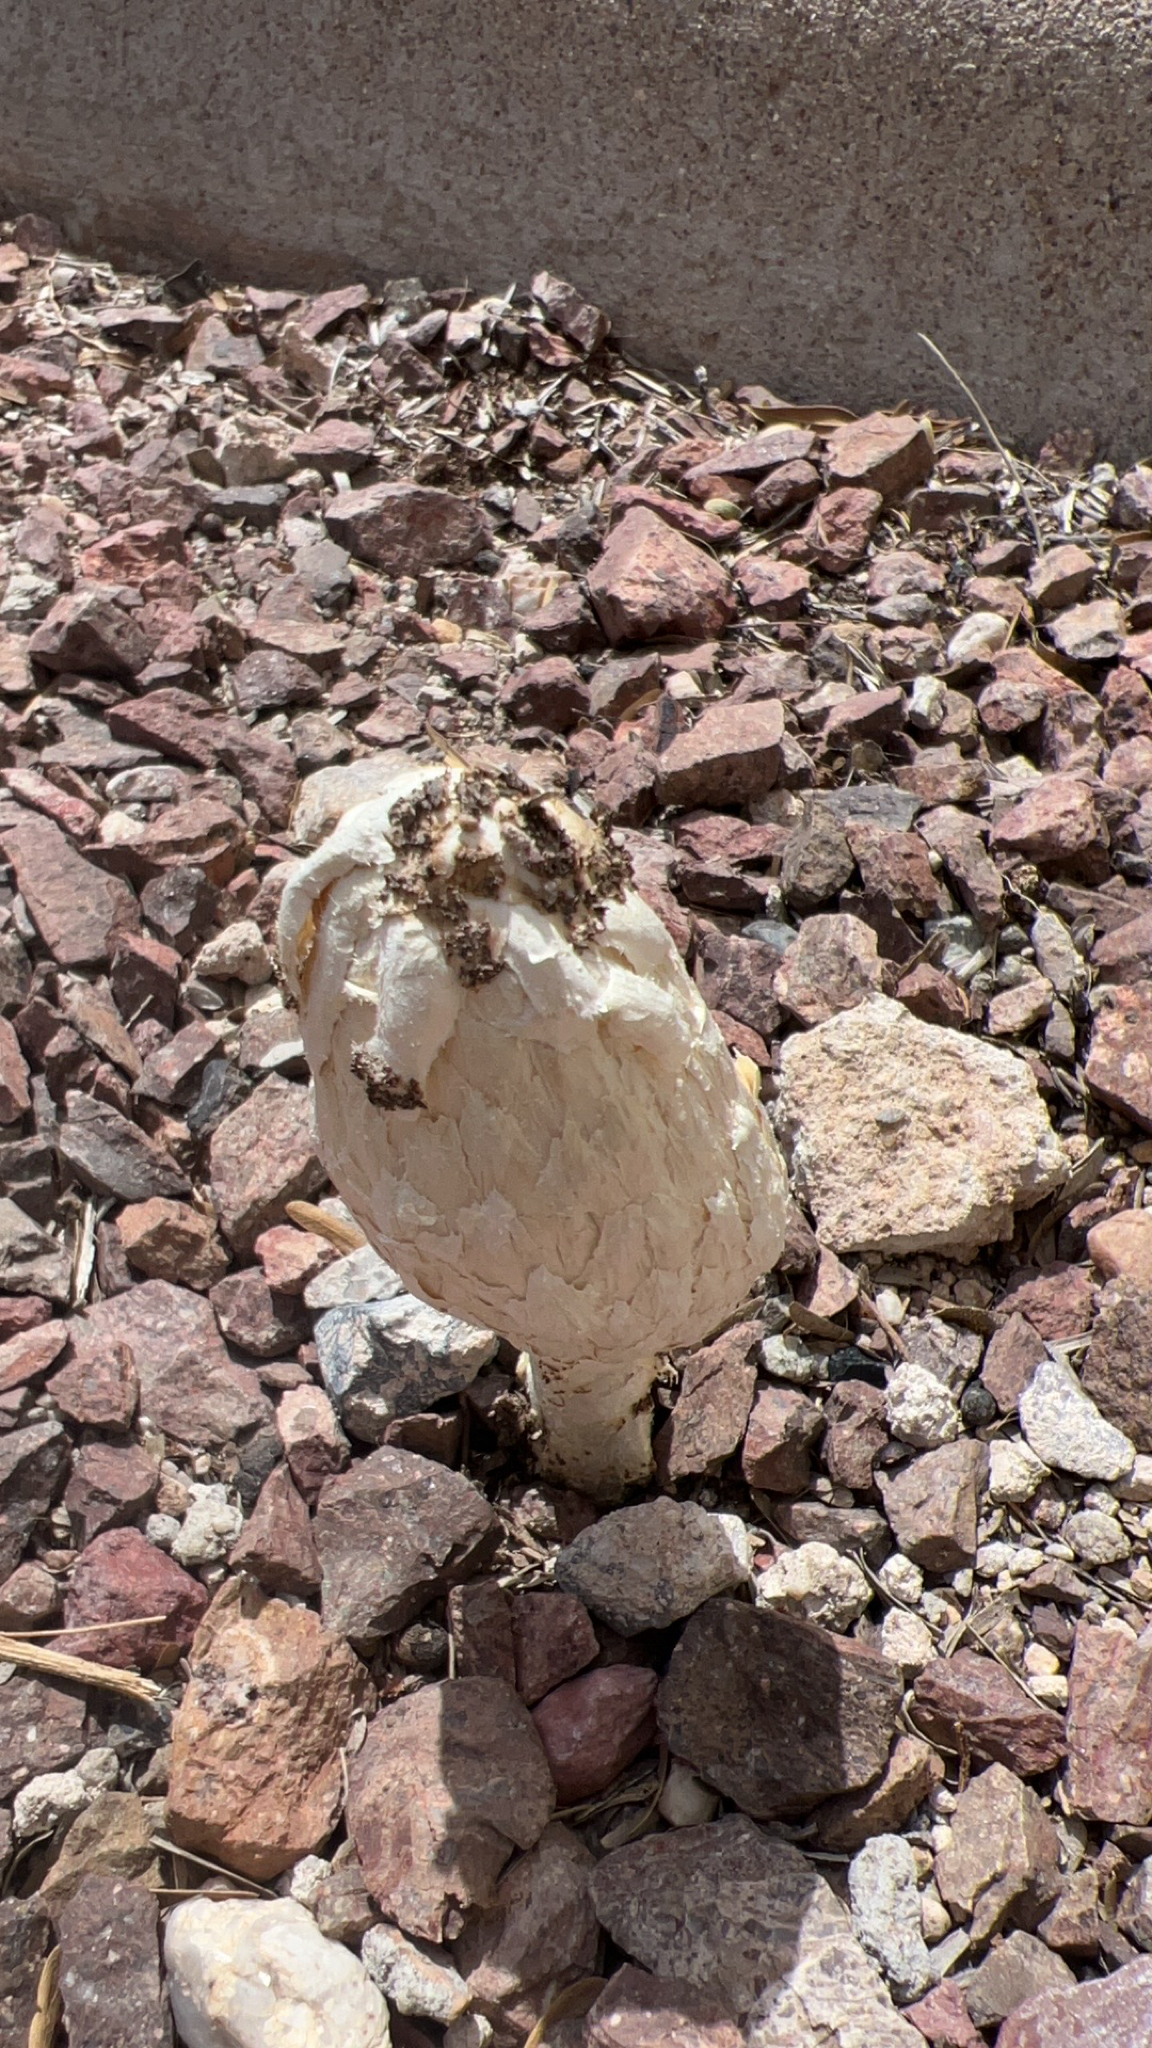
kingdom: Fungi
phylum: Basidiomycota
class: Agaricomycetes
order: Agaricales
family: Agaricaceae
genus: Podaxis
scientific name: Podaxis pistillaris
